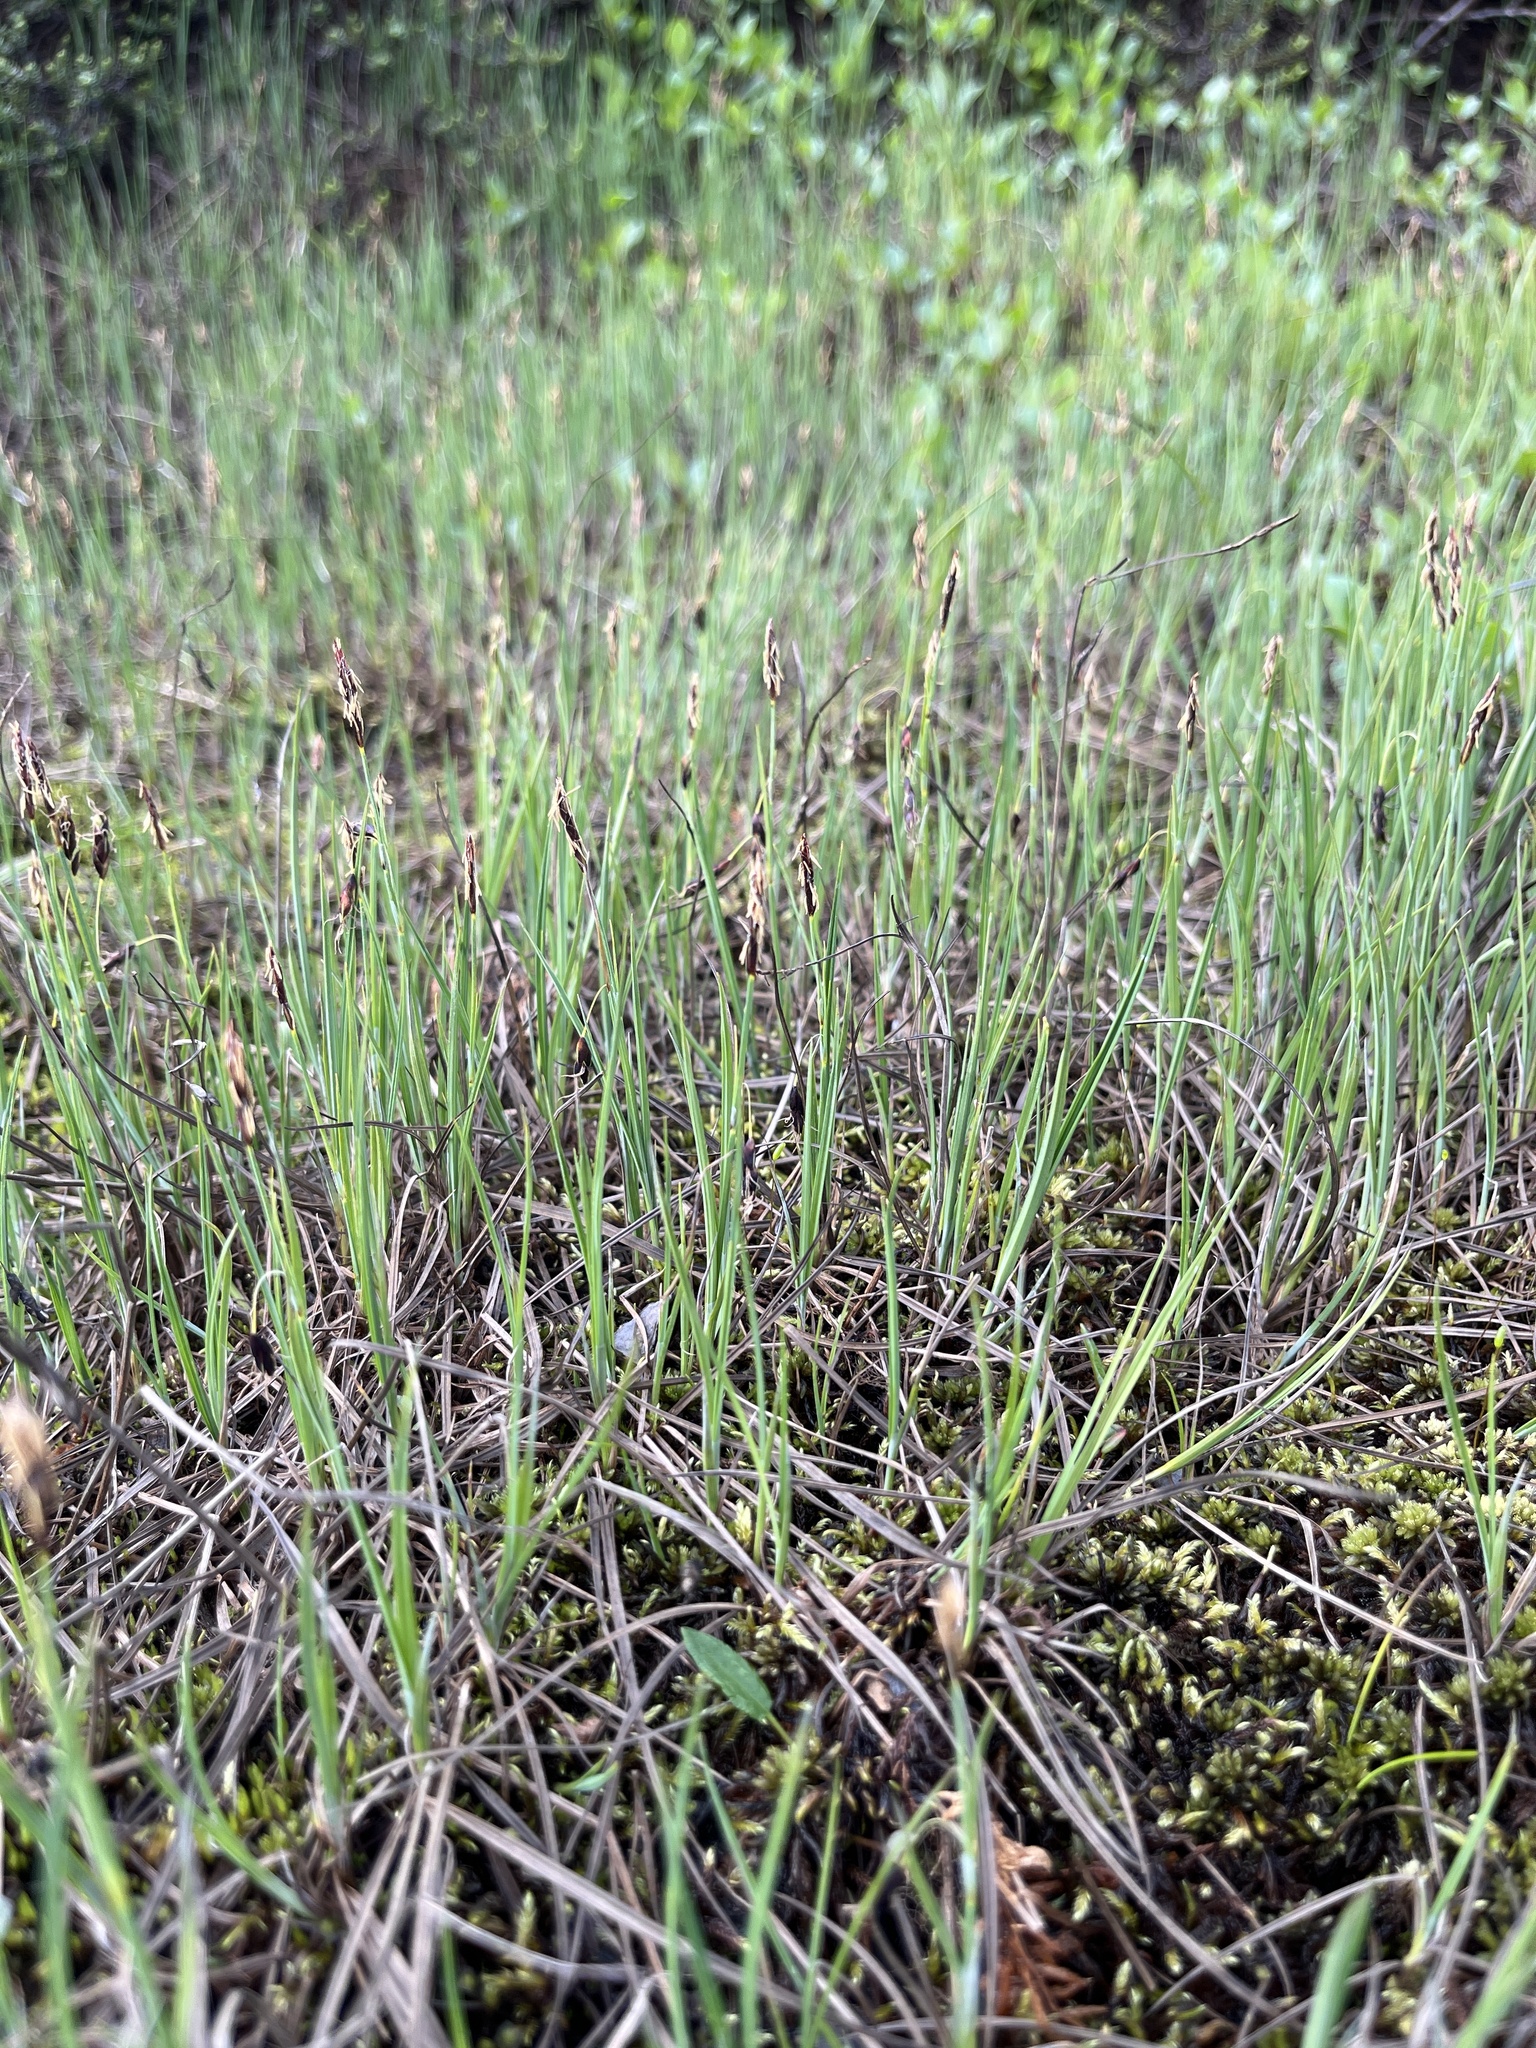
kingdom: Plantae
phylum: Tracheophyta
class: Liliopsida
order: Poales
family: Cyperaceae
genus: Carex
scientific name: Carex rariflora
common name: Loose-flowered alpine sedge
